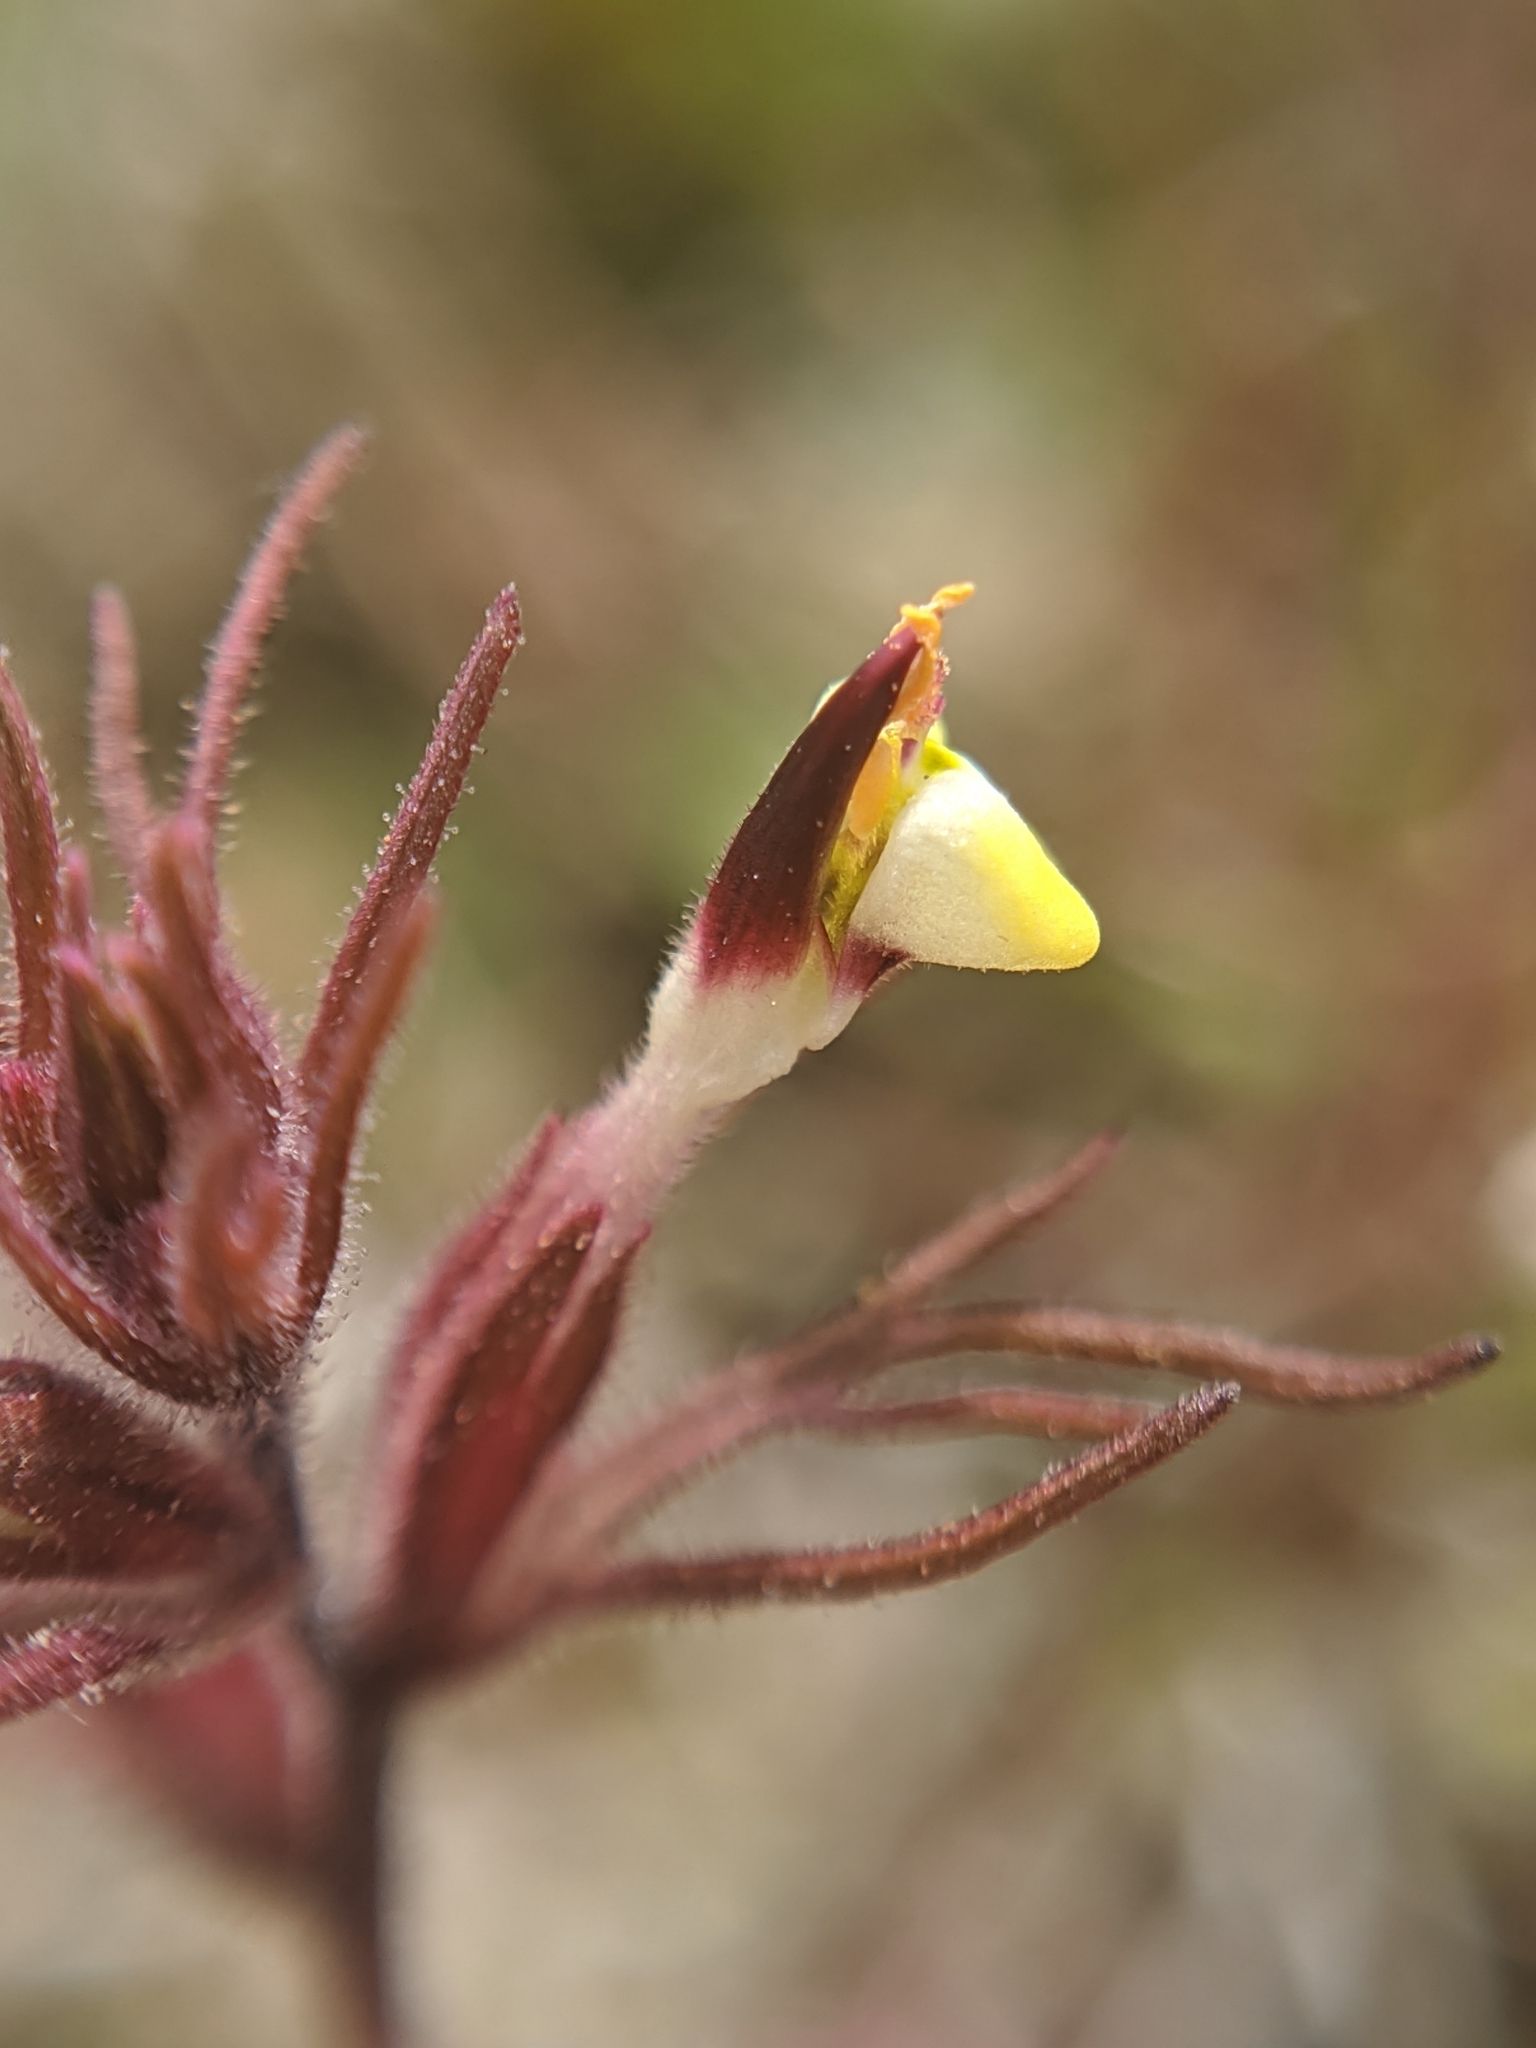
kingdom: Plantae
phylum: Tracheophyta
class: Magnoliopsida
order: Lamiales
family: Orobanchaceae
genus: Triphysaria
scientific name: Triphysaria micrantha
